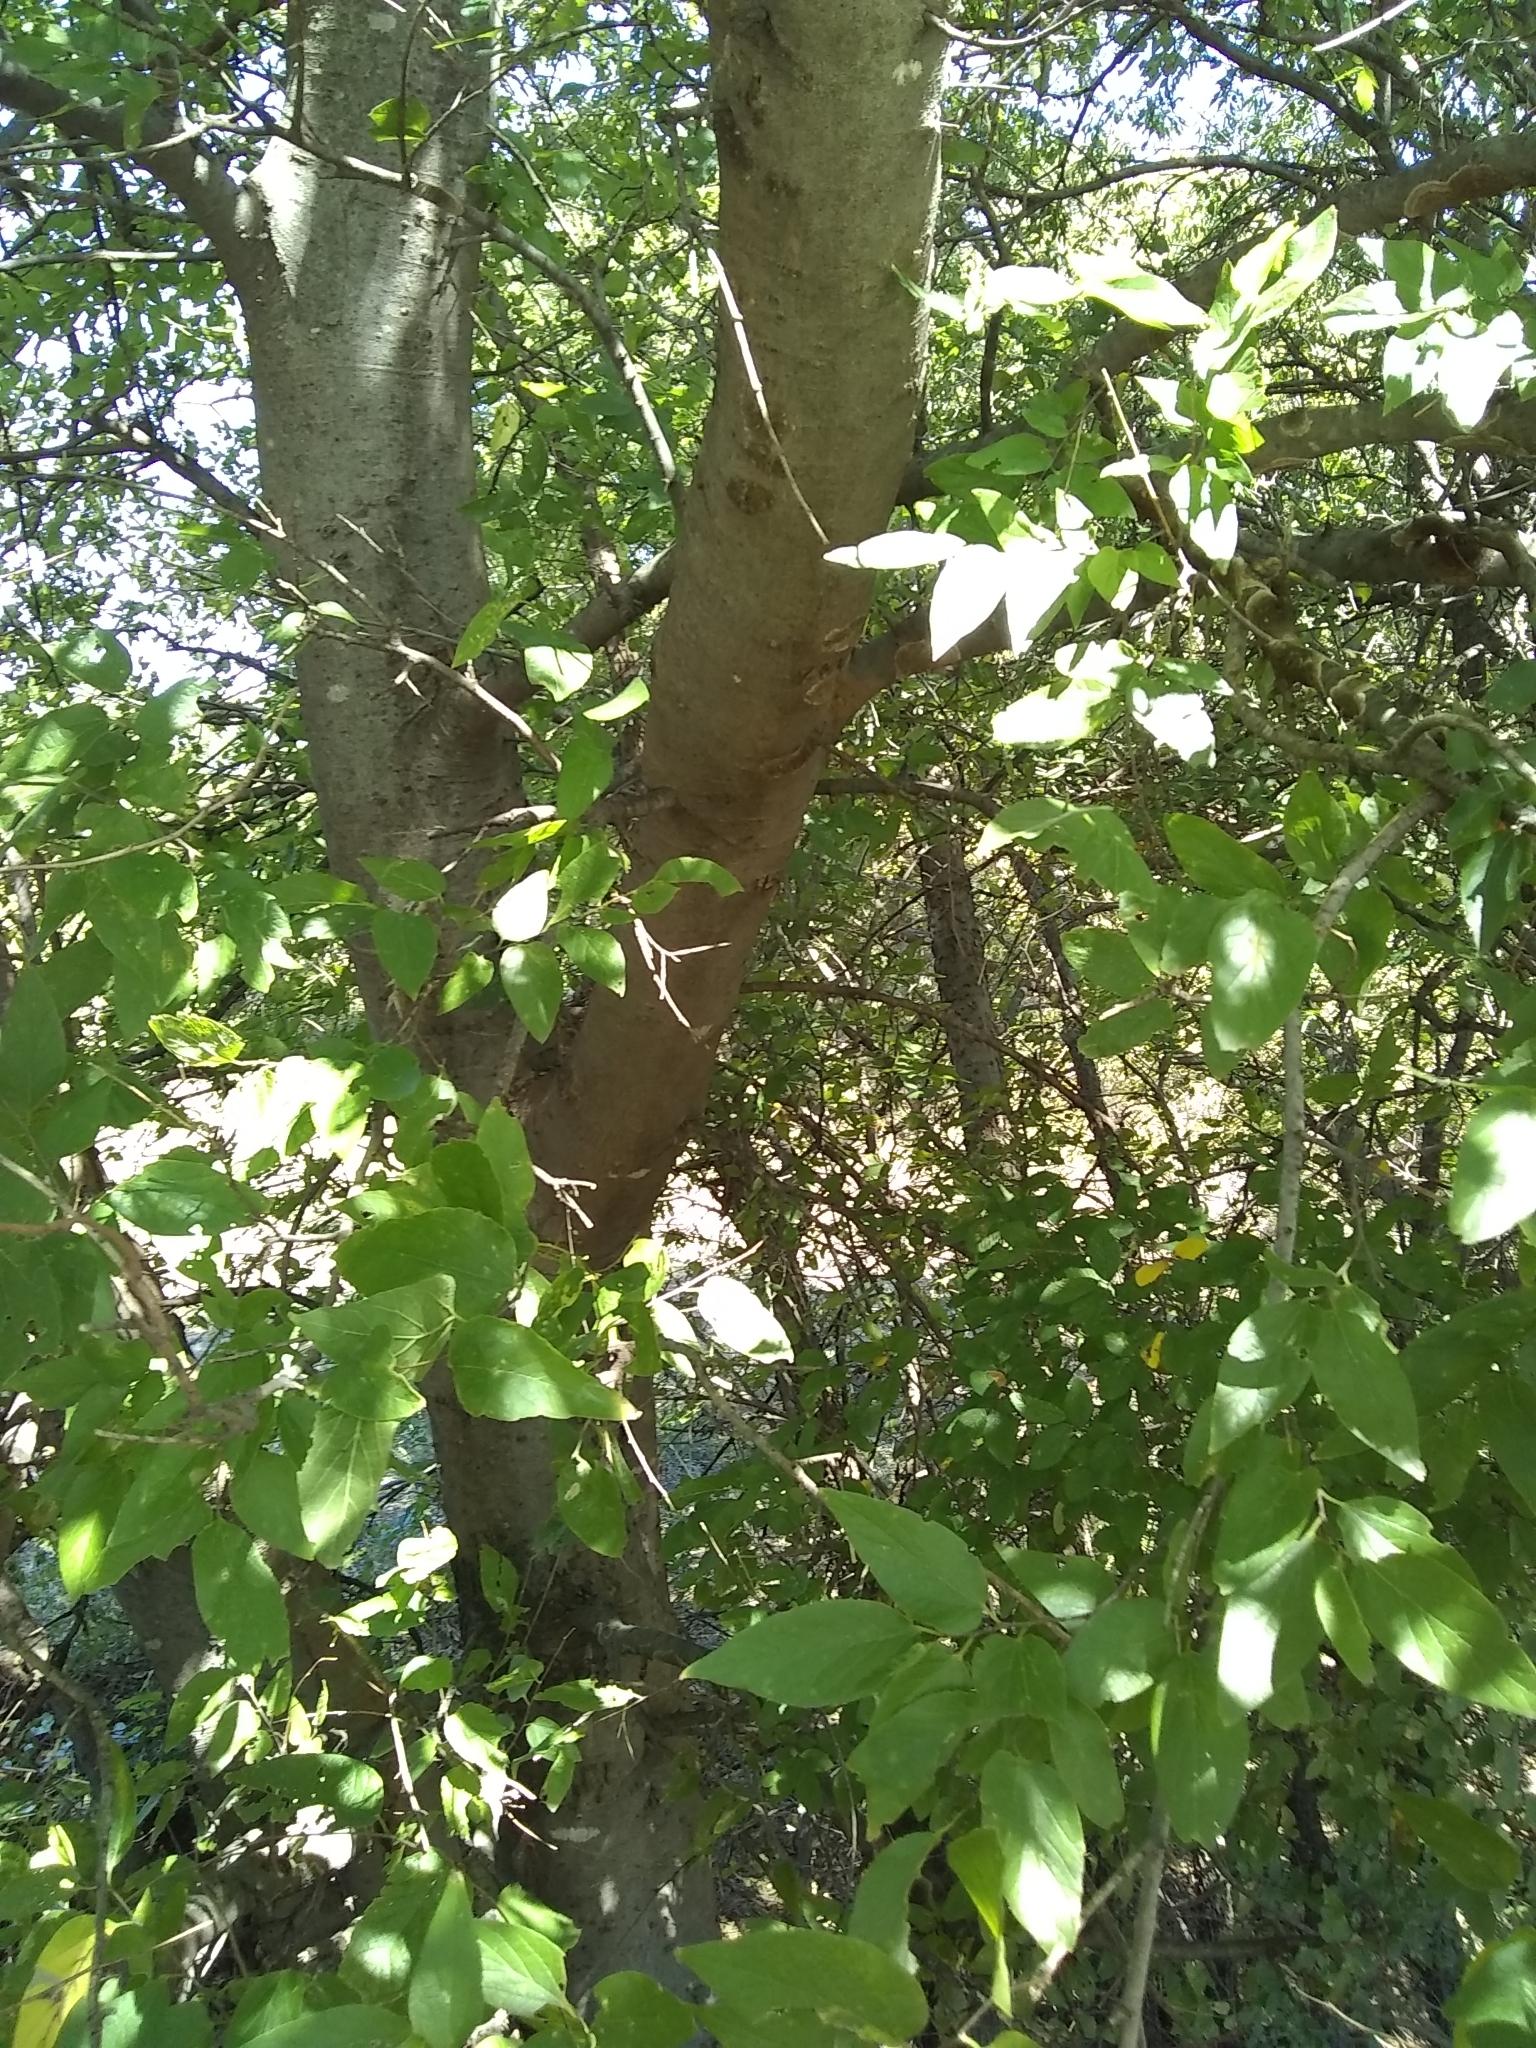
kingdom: Plantae
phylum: Tracheophyta
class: Magnoliopsida
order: Rosales
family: Cannabaceae
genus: Celtis
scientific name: Celtis laevigata
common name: Sugarberry
